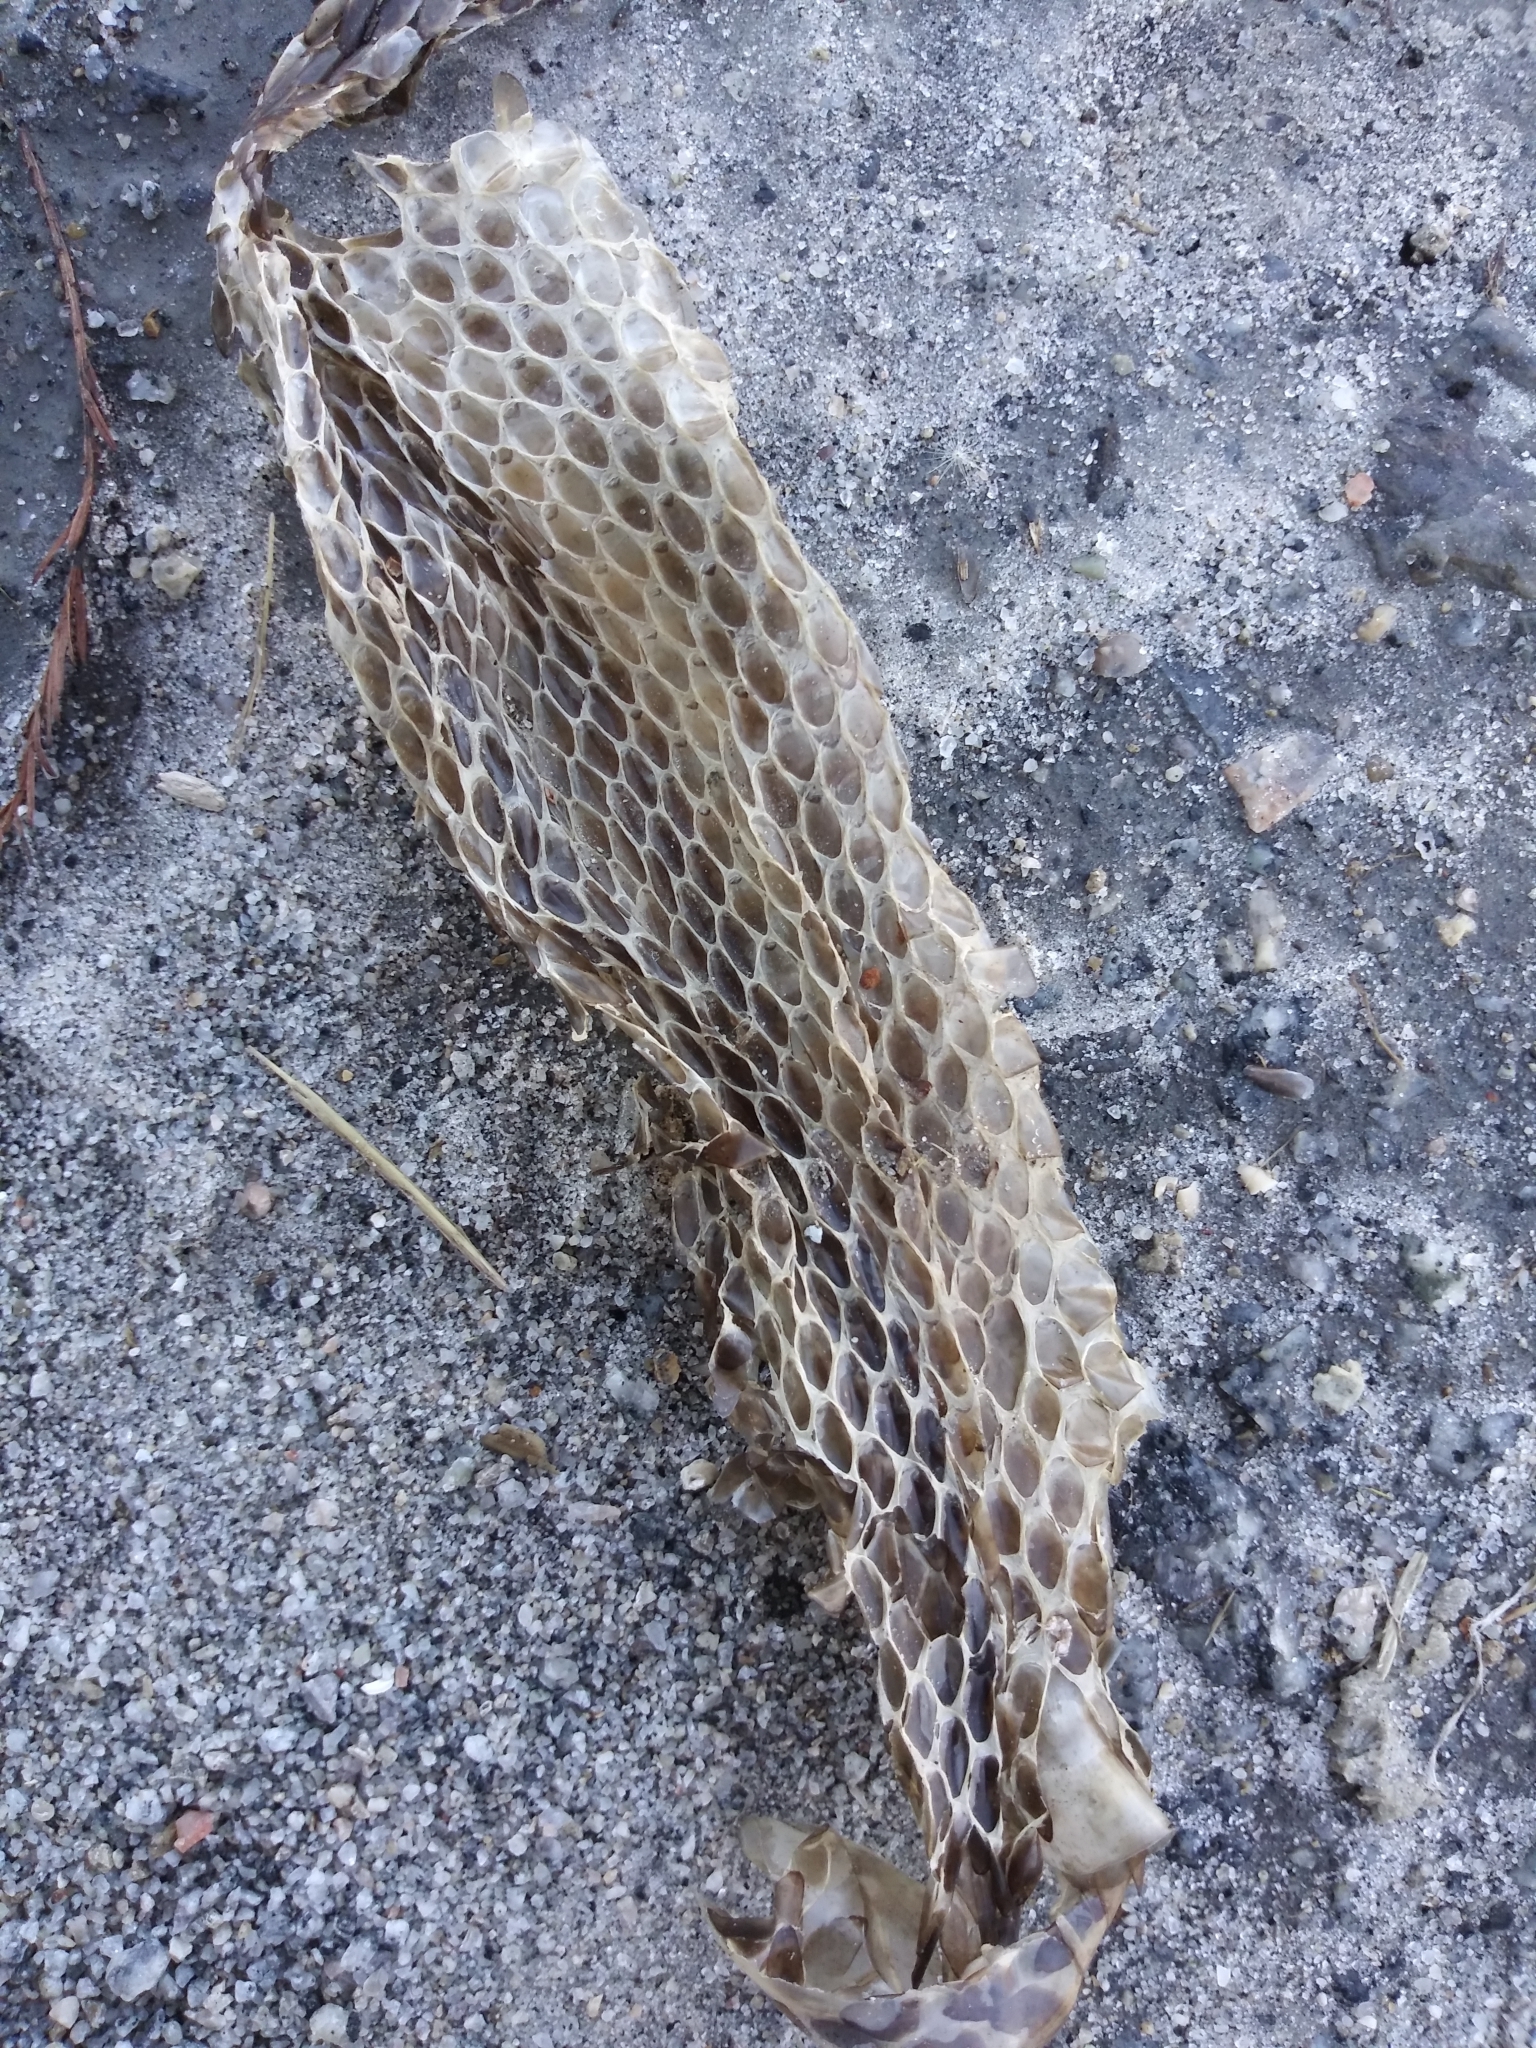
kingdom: Animalia
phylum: Chordata
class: Squamata
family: Colubridae
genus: Pantherophis
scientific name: Pantherophis alleghaniensis
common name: Eastern rat snake
